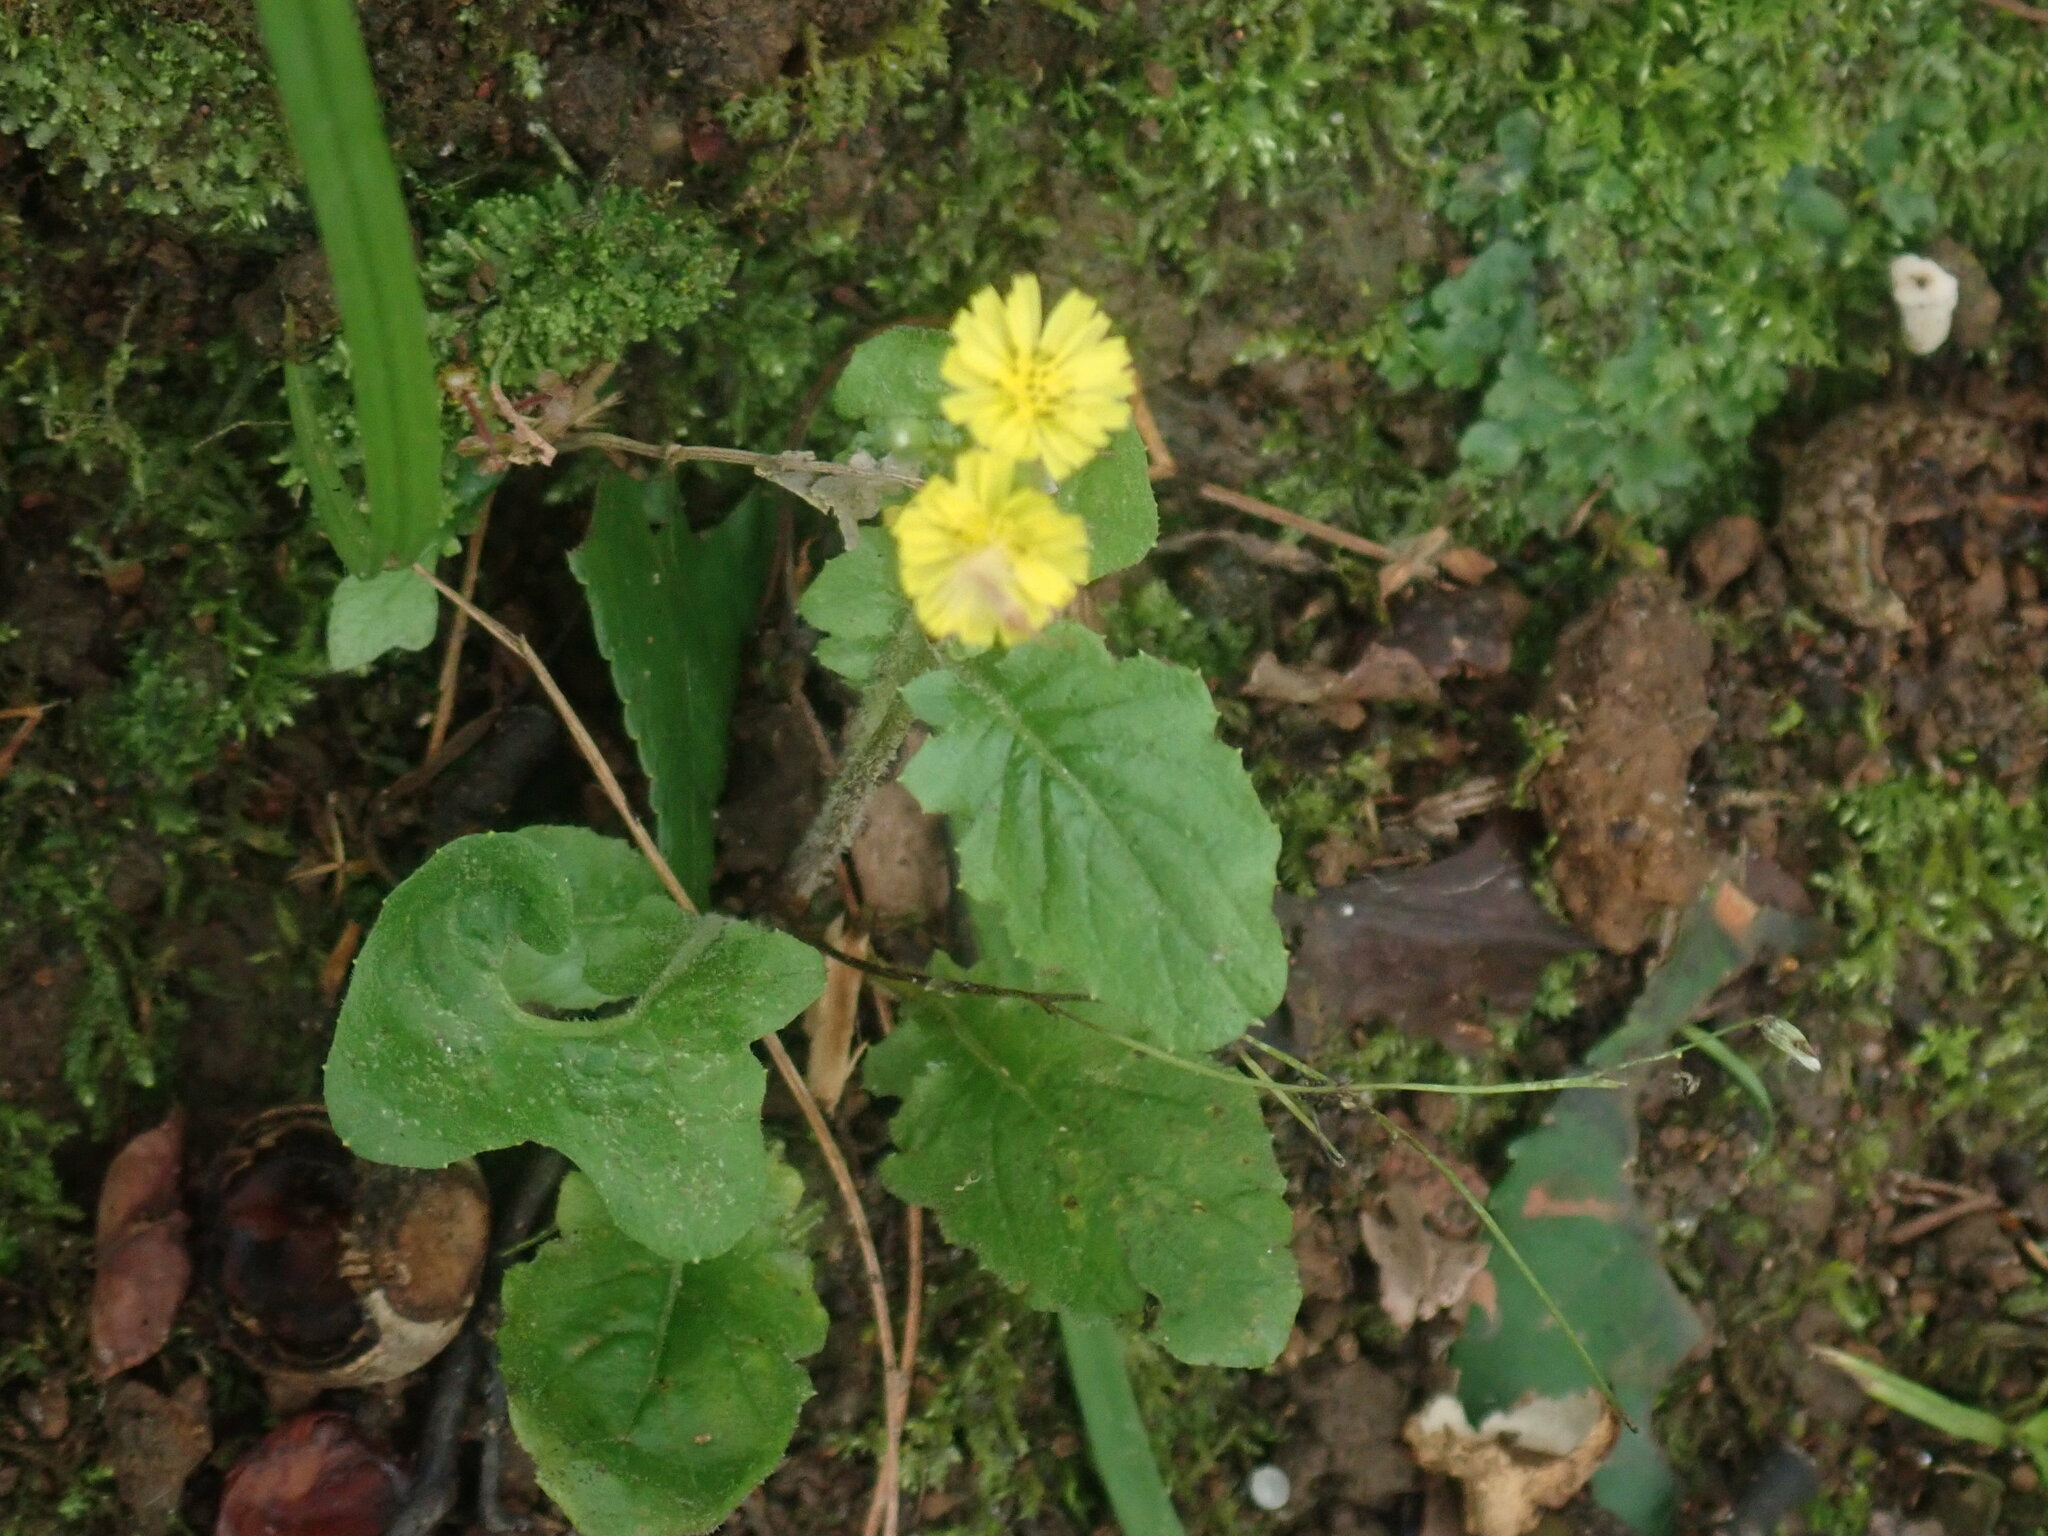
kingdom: Plantae
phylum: Tracheophyta
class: Magnoliopsida
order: Asterales
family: Asteraceae
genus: Youngia
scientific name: Youngia japonica
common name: Oriental false hawksbeard
